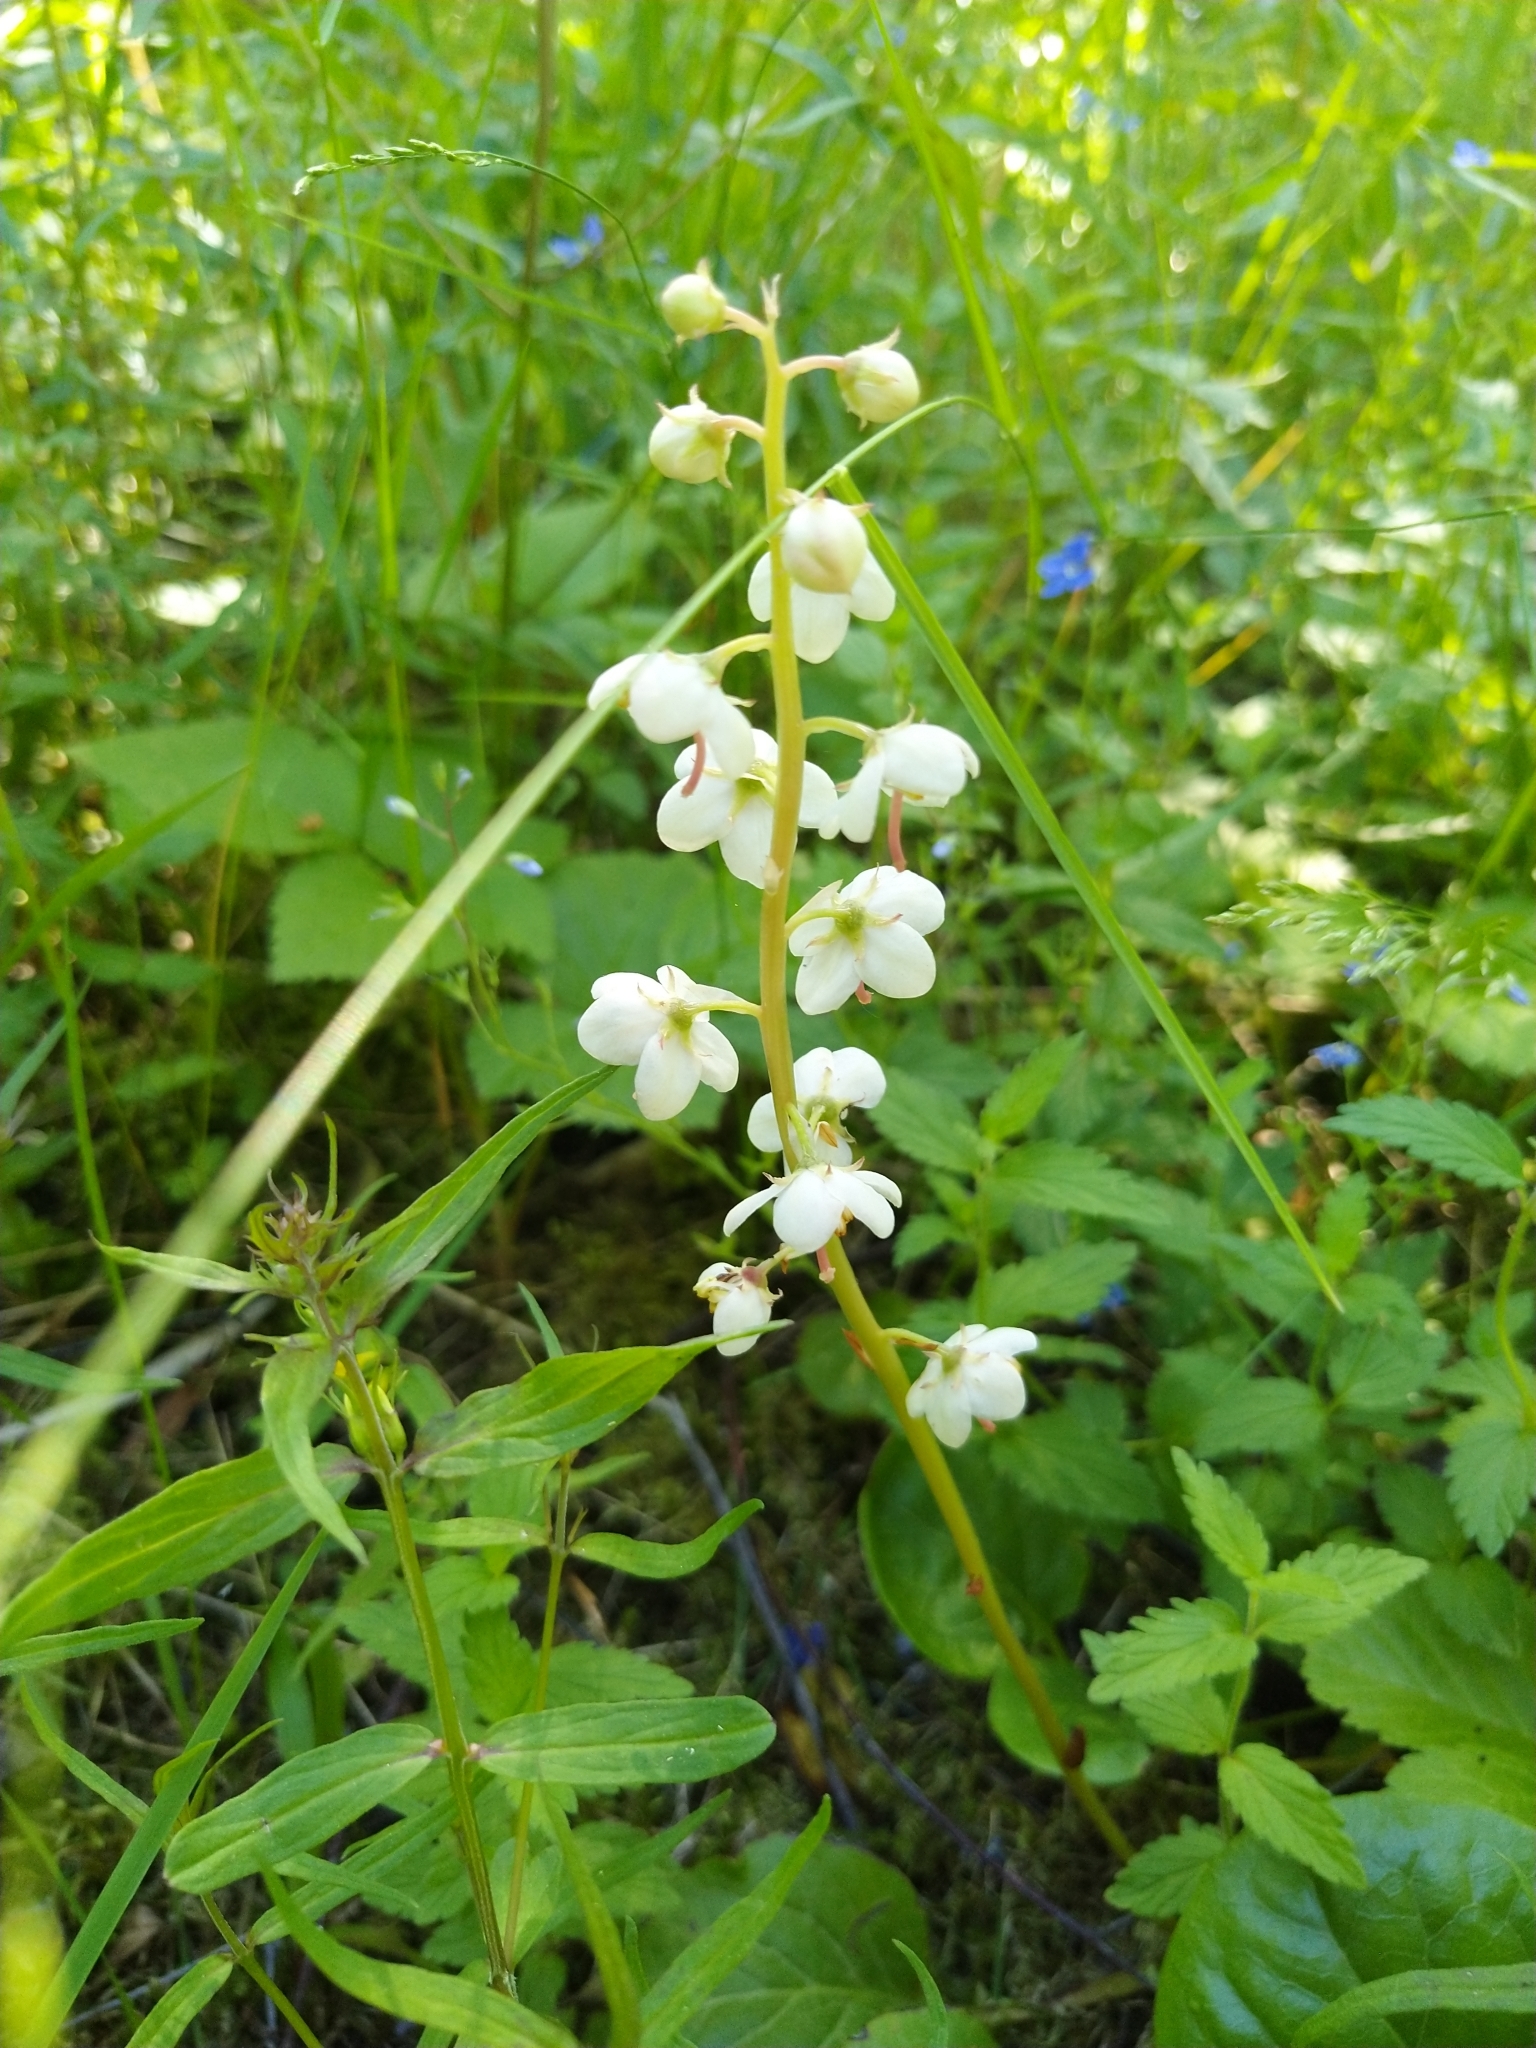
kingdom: Plantae
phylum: Tracheophyta
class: Magnoliopsida
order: Ericales
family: Ericaceae
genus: Pyrola
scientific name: Pyrola rotundifolia
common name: Round-leaved wintergreen
